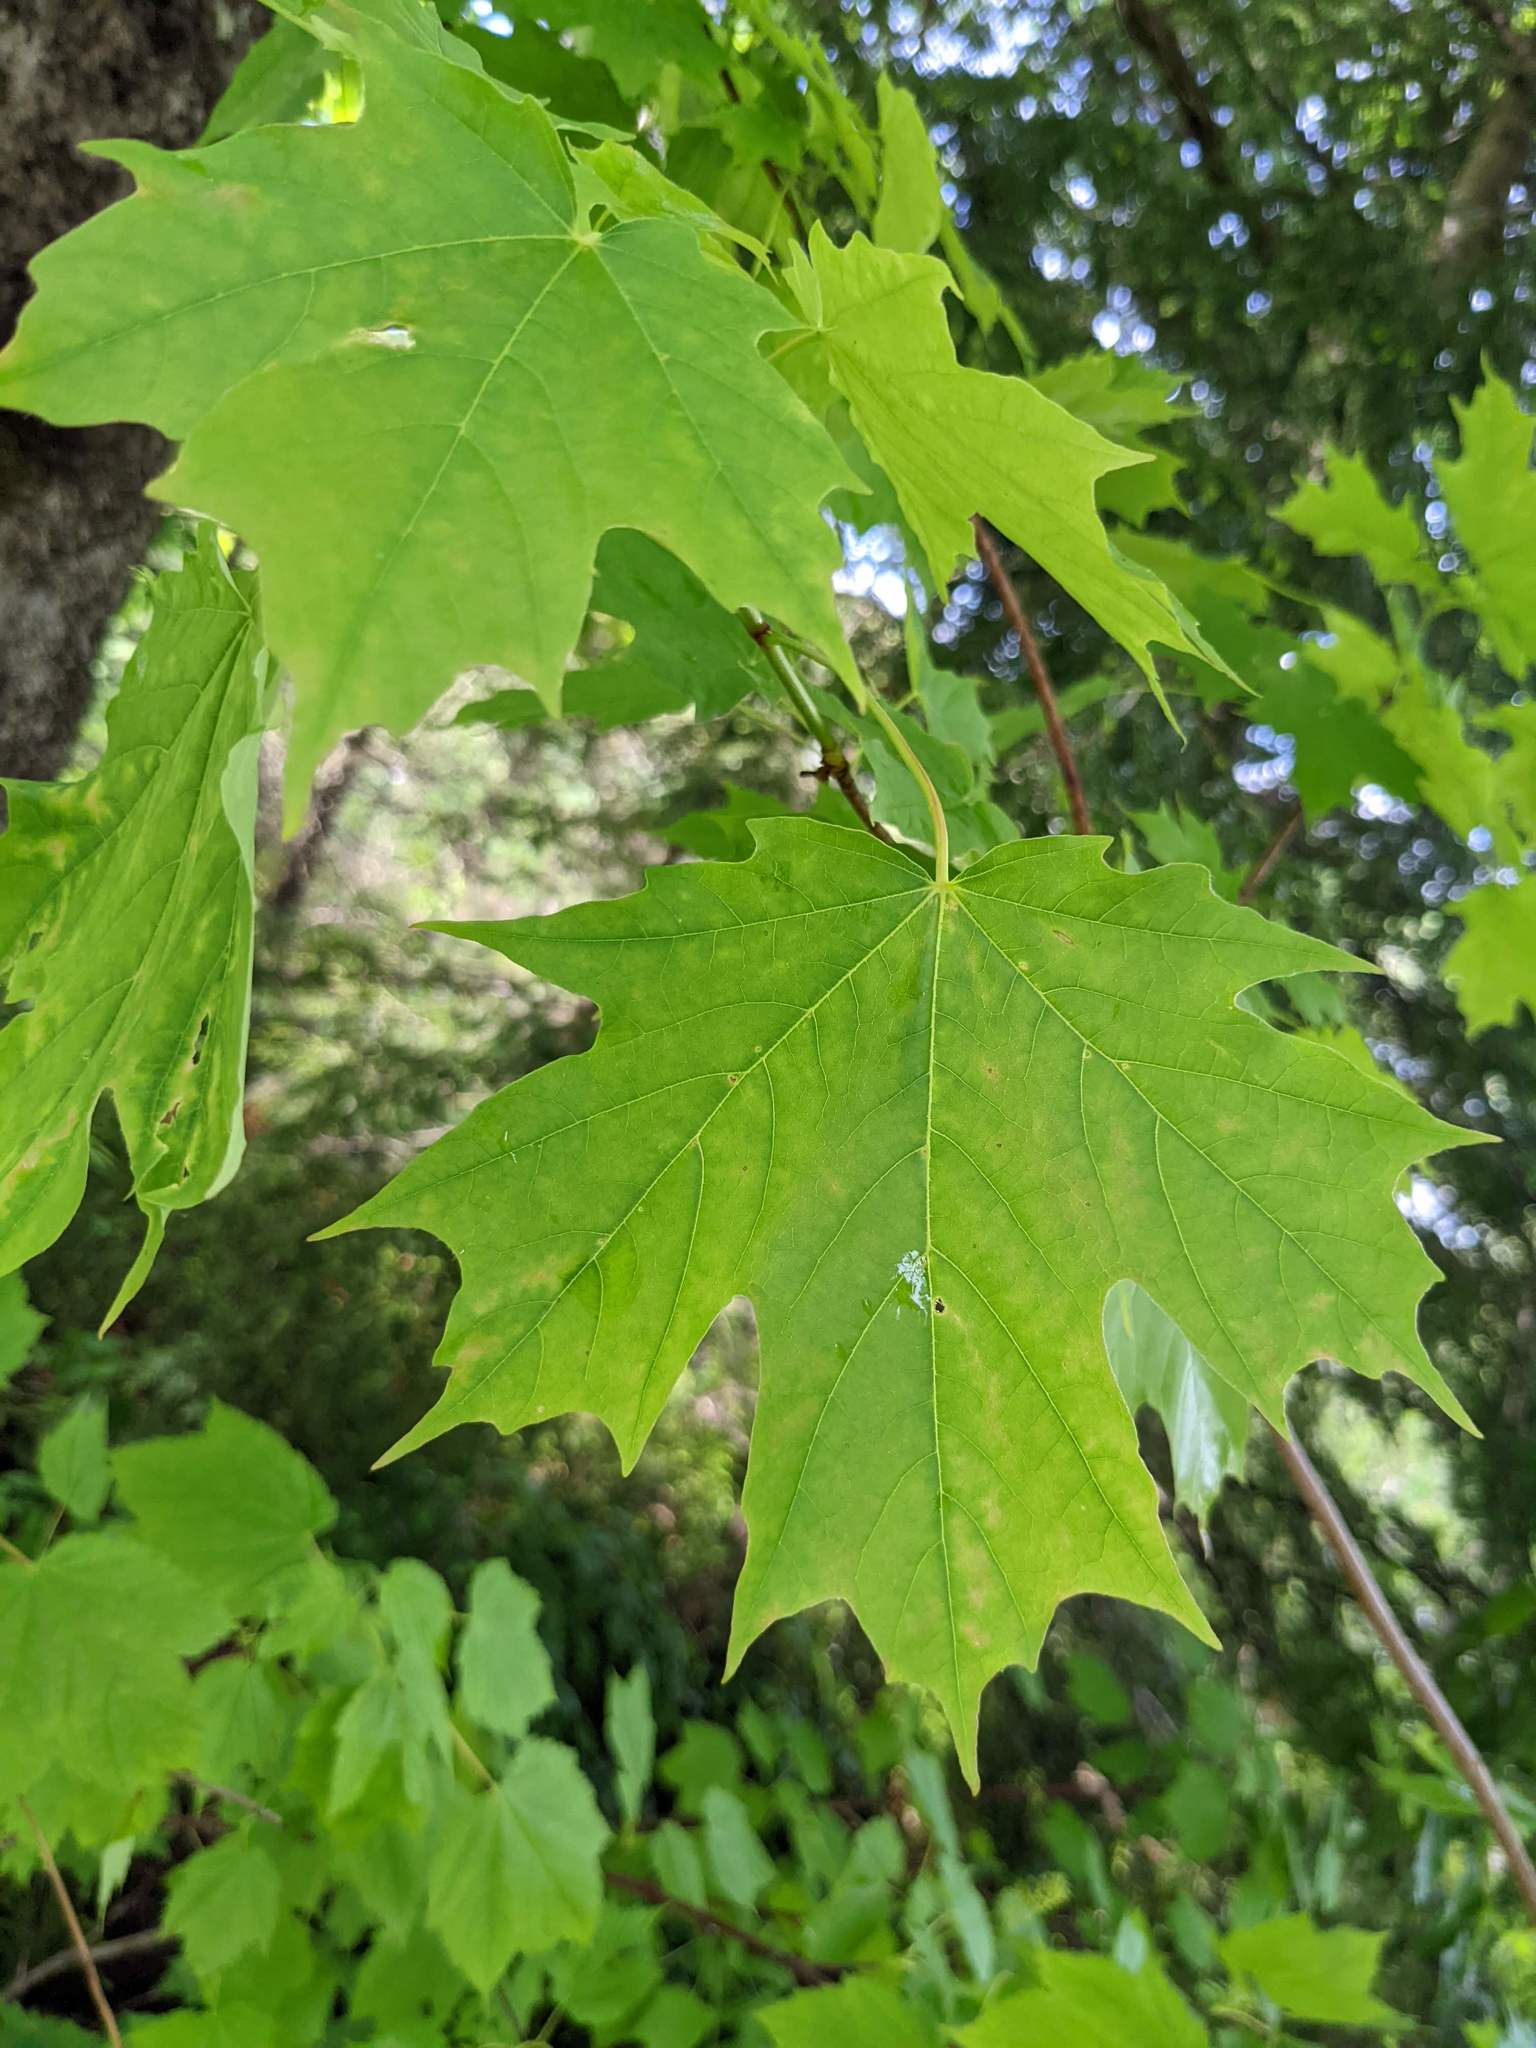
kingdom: Plantae
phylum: Tracheophyta
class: Magnoliopsida
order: Sapindales
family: Sapindaceae
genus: Acer
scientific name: Acer saccharum
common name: Sugar maple
